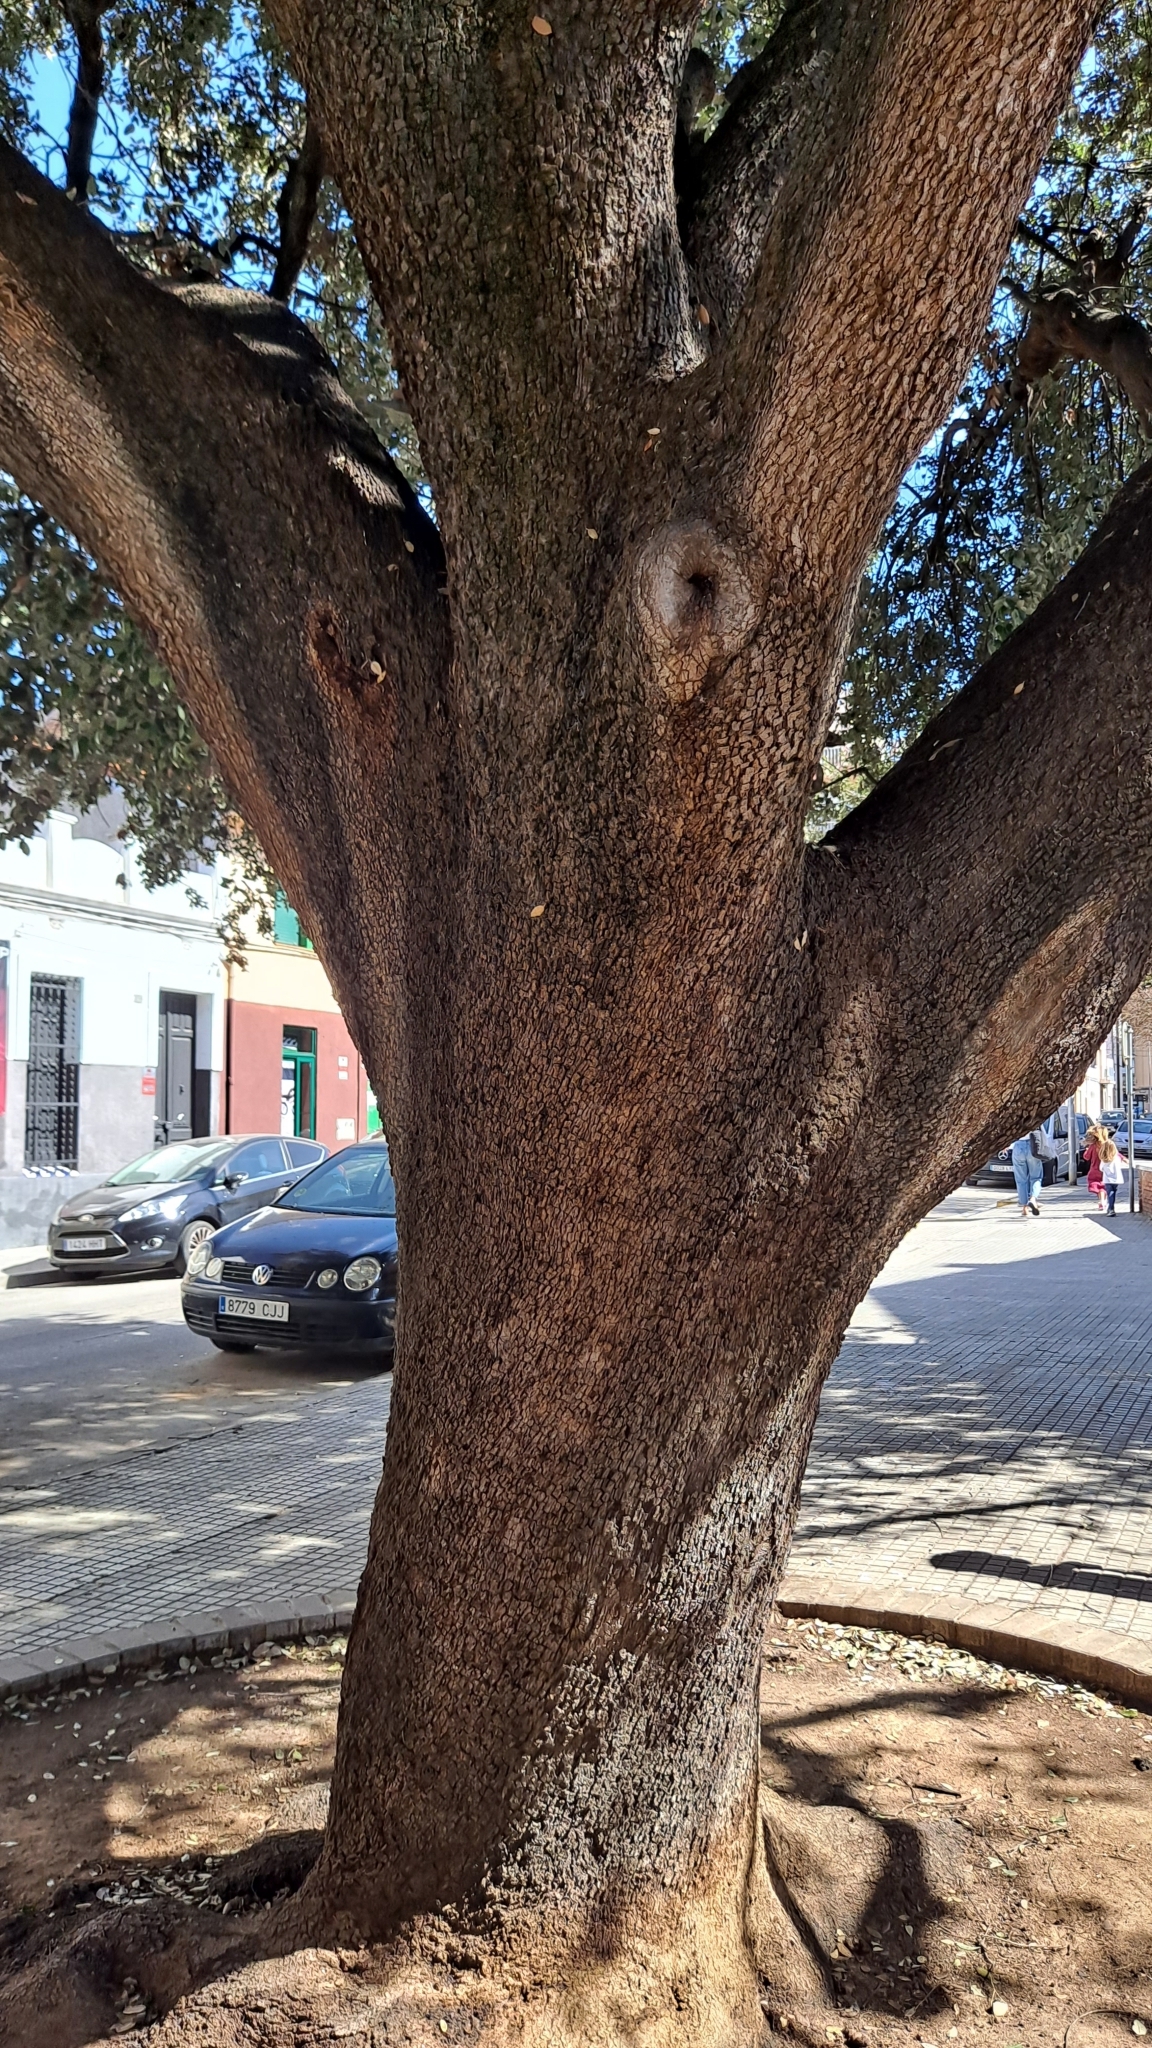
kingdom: Plantae
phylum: Tracheophyta
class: Magnoliopsida
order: Fagales
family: Fagaceae
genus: Quercus
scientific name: Quercus ilex
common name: Evergreen oak
